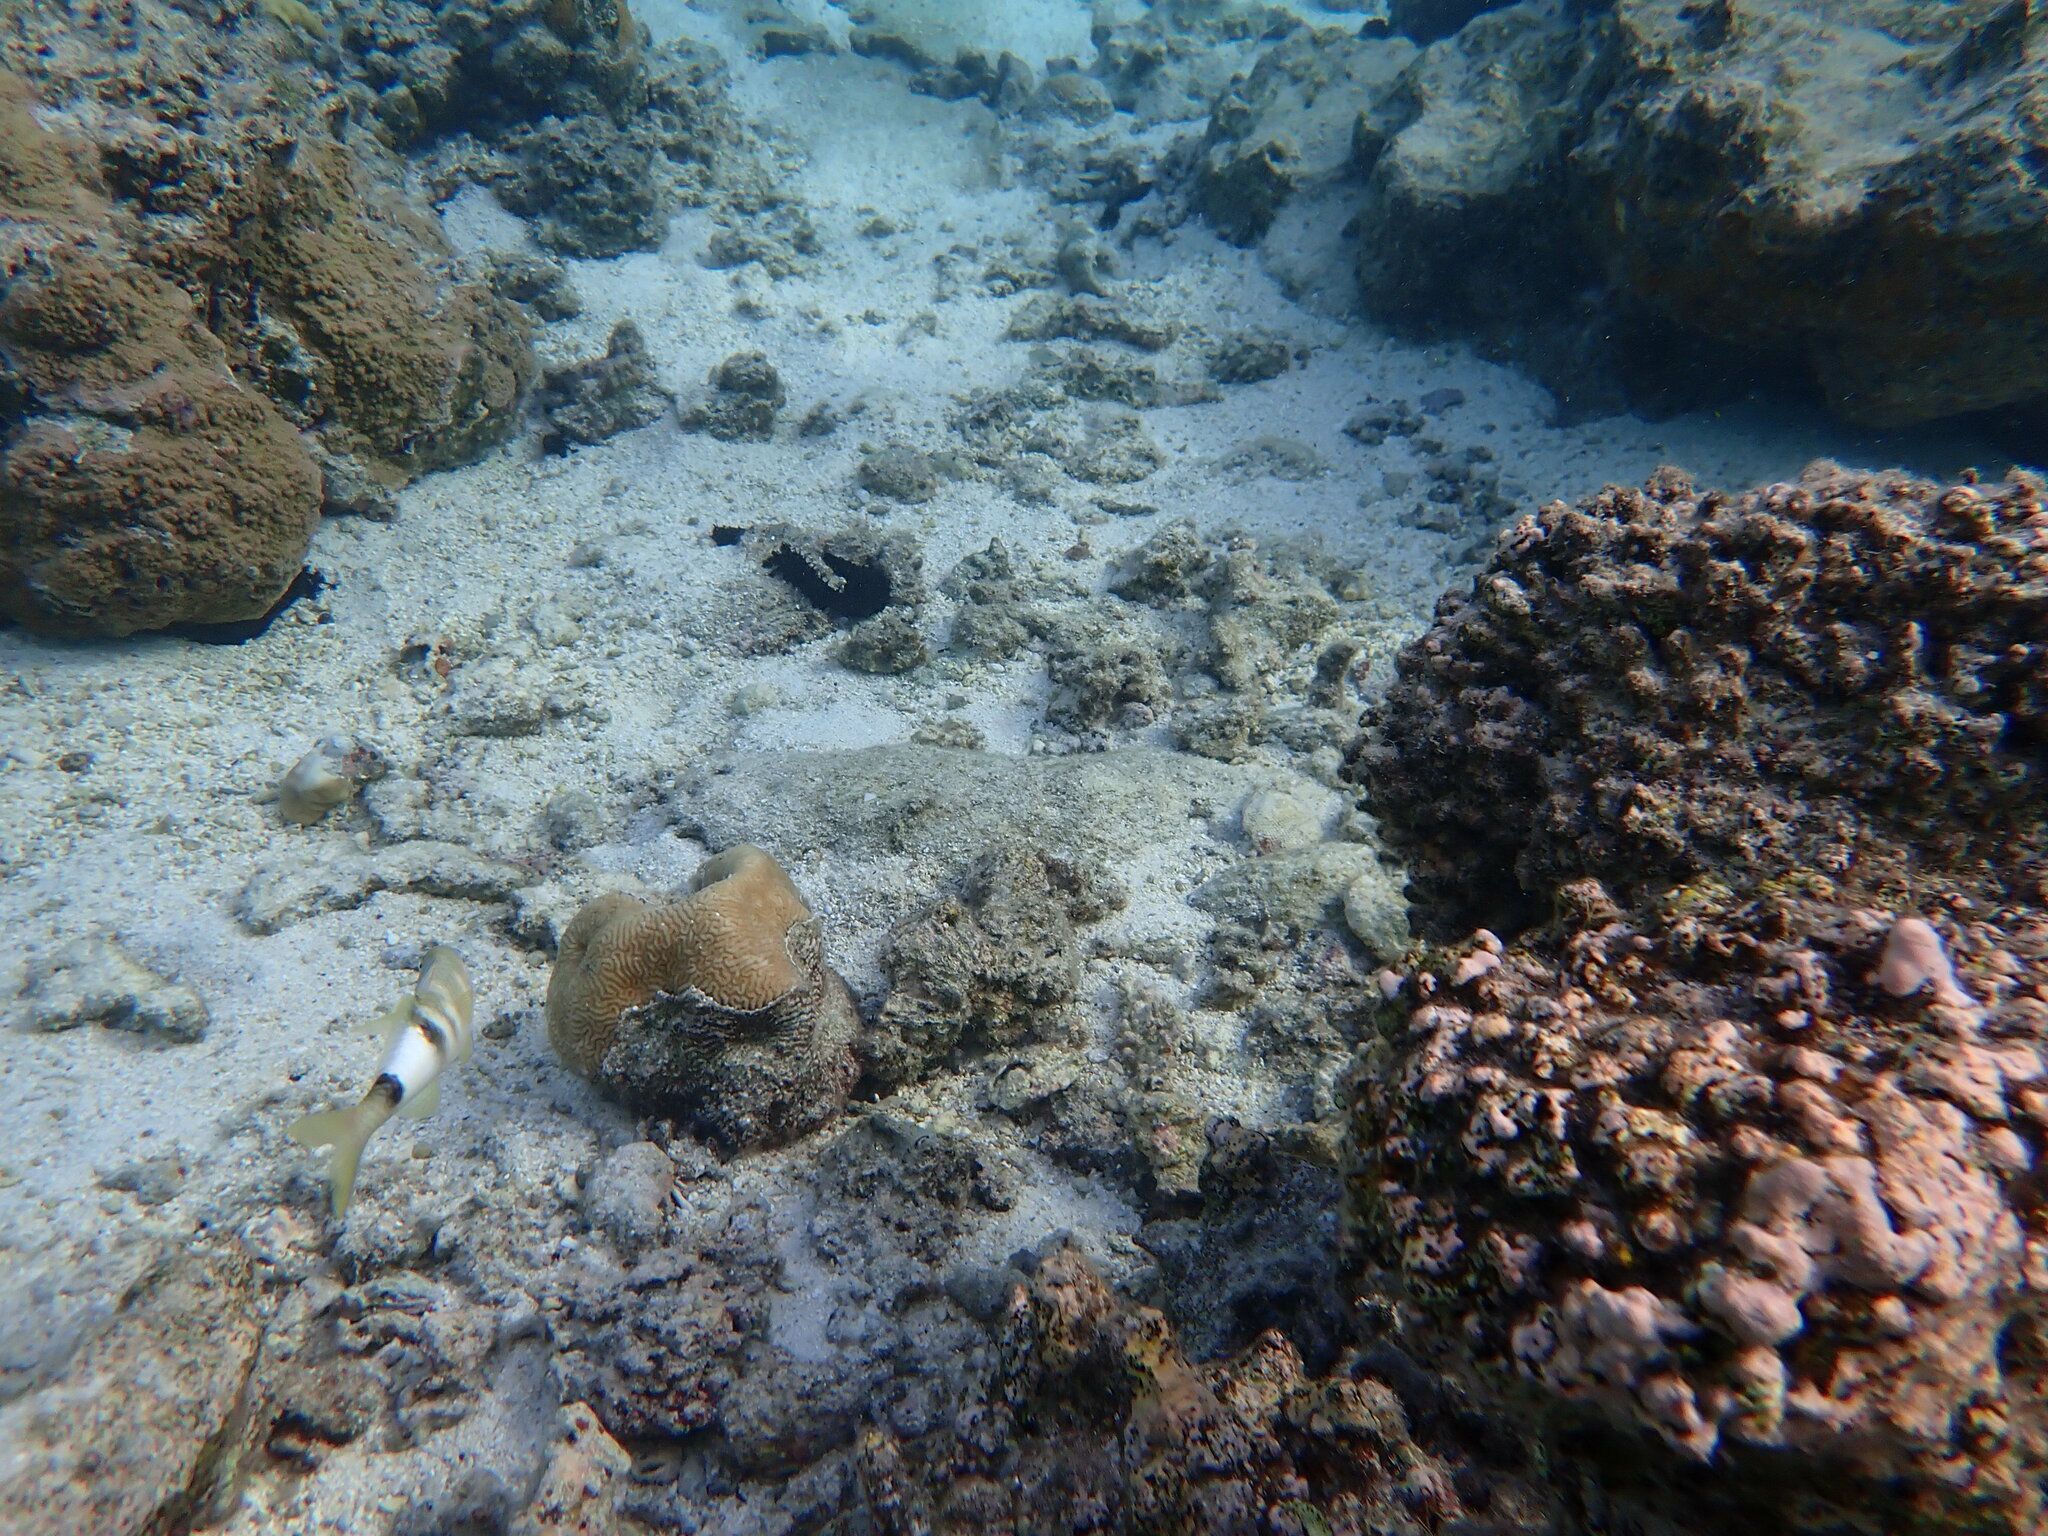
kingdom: Animalia
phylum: Chordata
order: Perciformes
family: Mullidae
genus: Parupeneus
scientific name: Parupeneus multifasciatus
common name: Manybar goatfish
